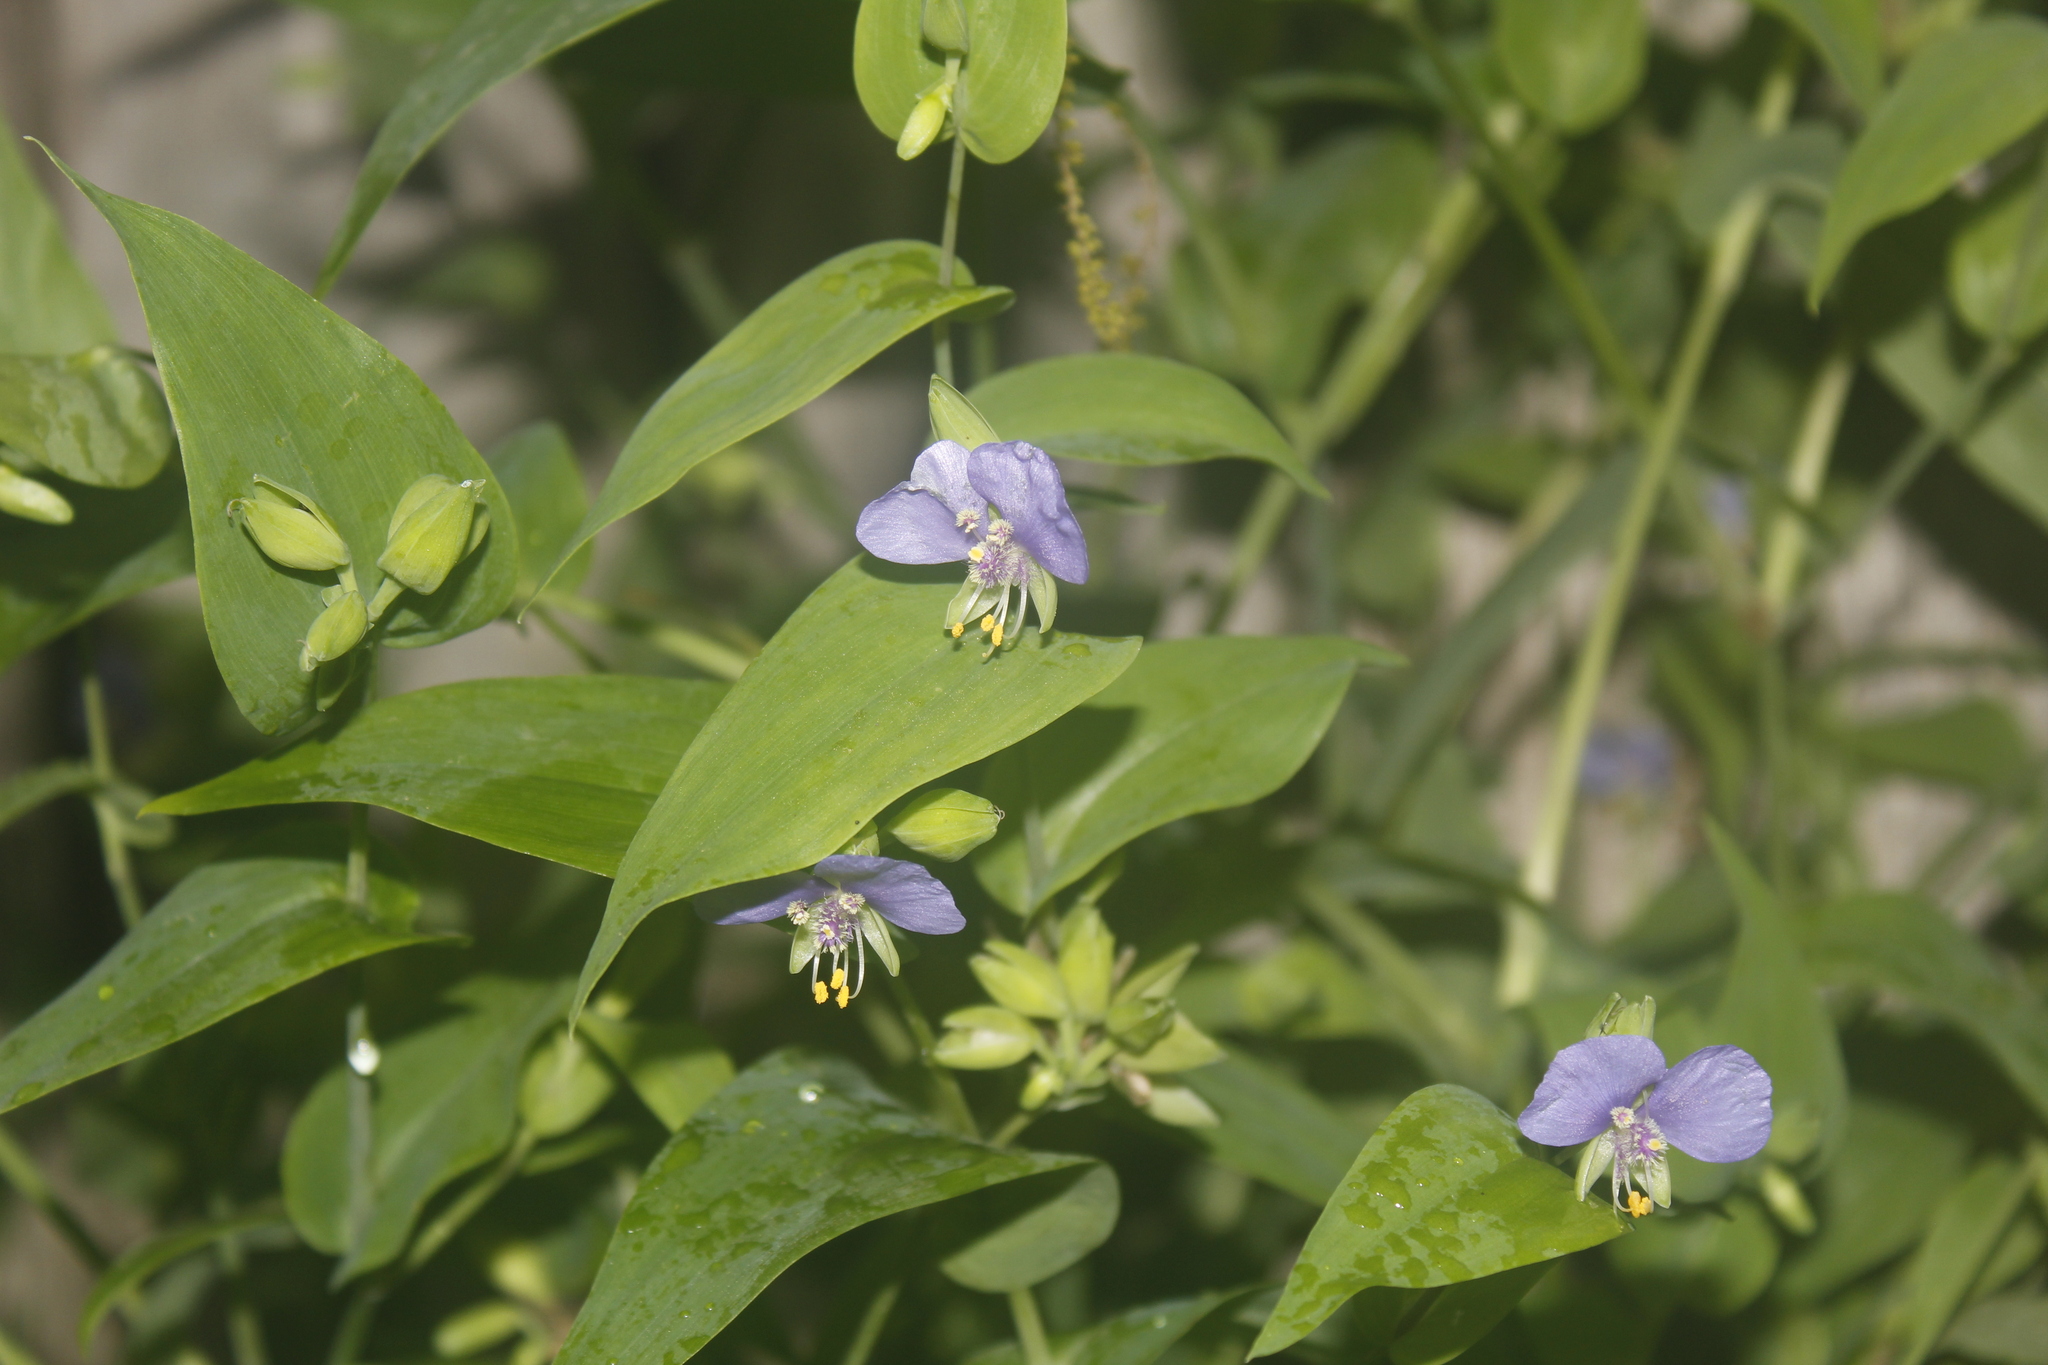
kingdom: Plantae
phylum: Tracheophyta
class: Liliopsida
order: Commelinales
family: Commelinaceae
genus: Tinantia
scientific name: Tinantia anomala
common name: False dayflower
